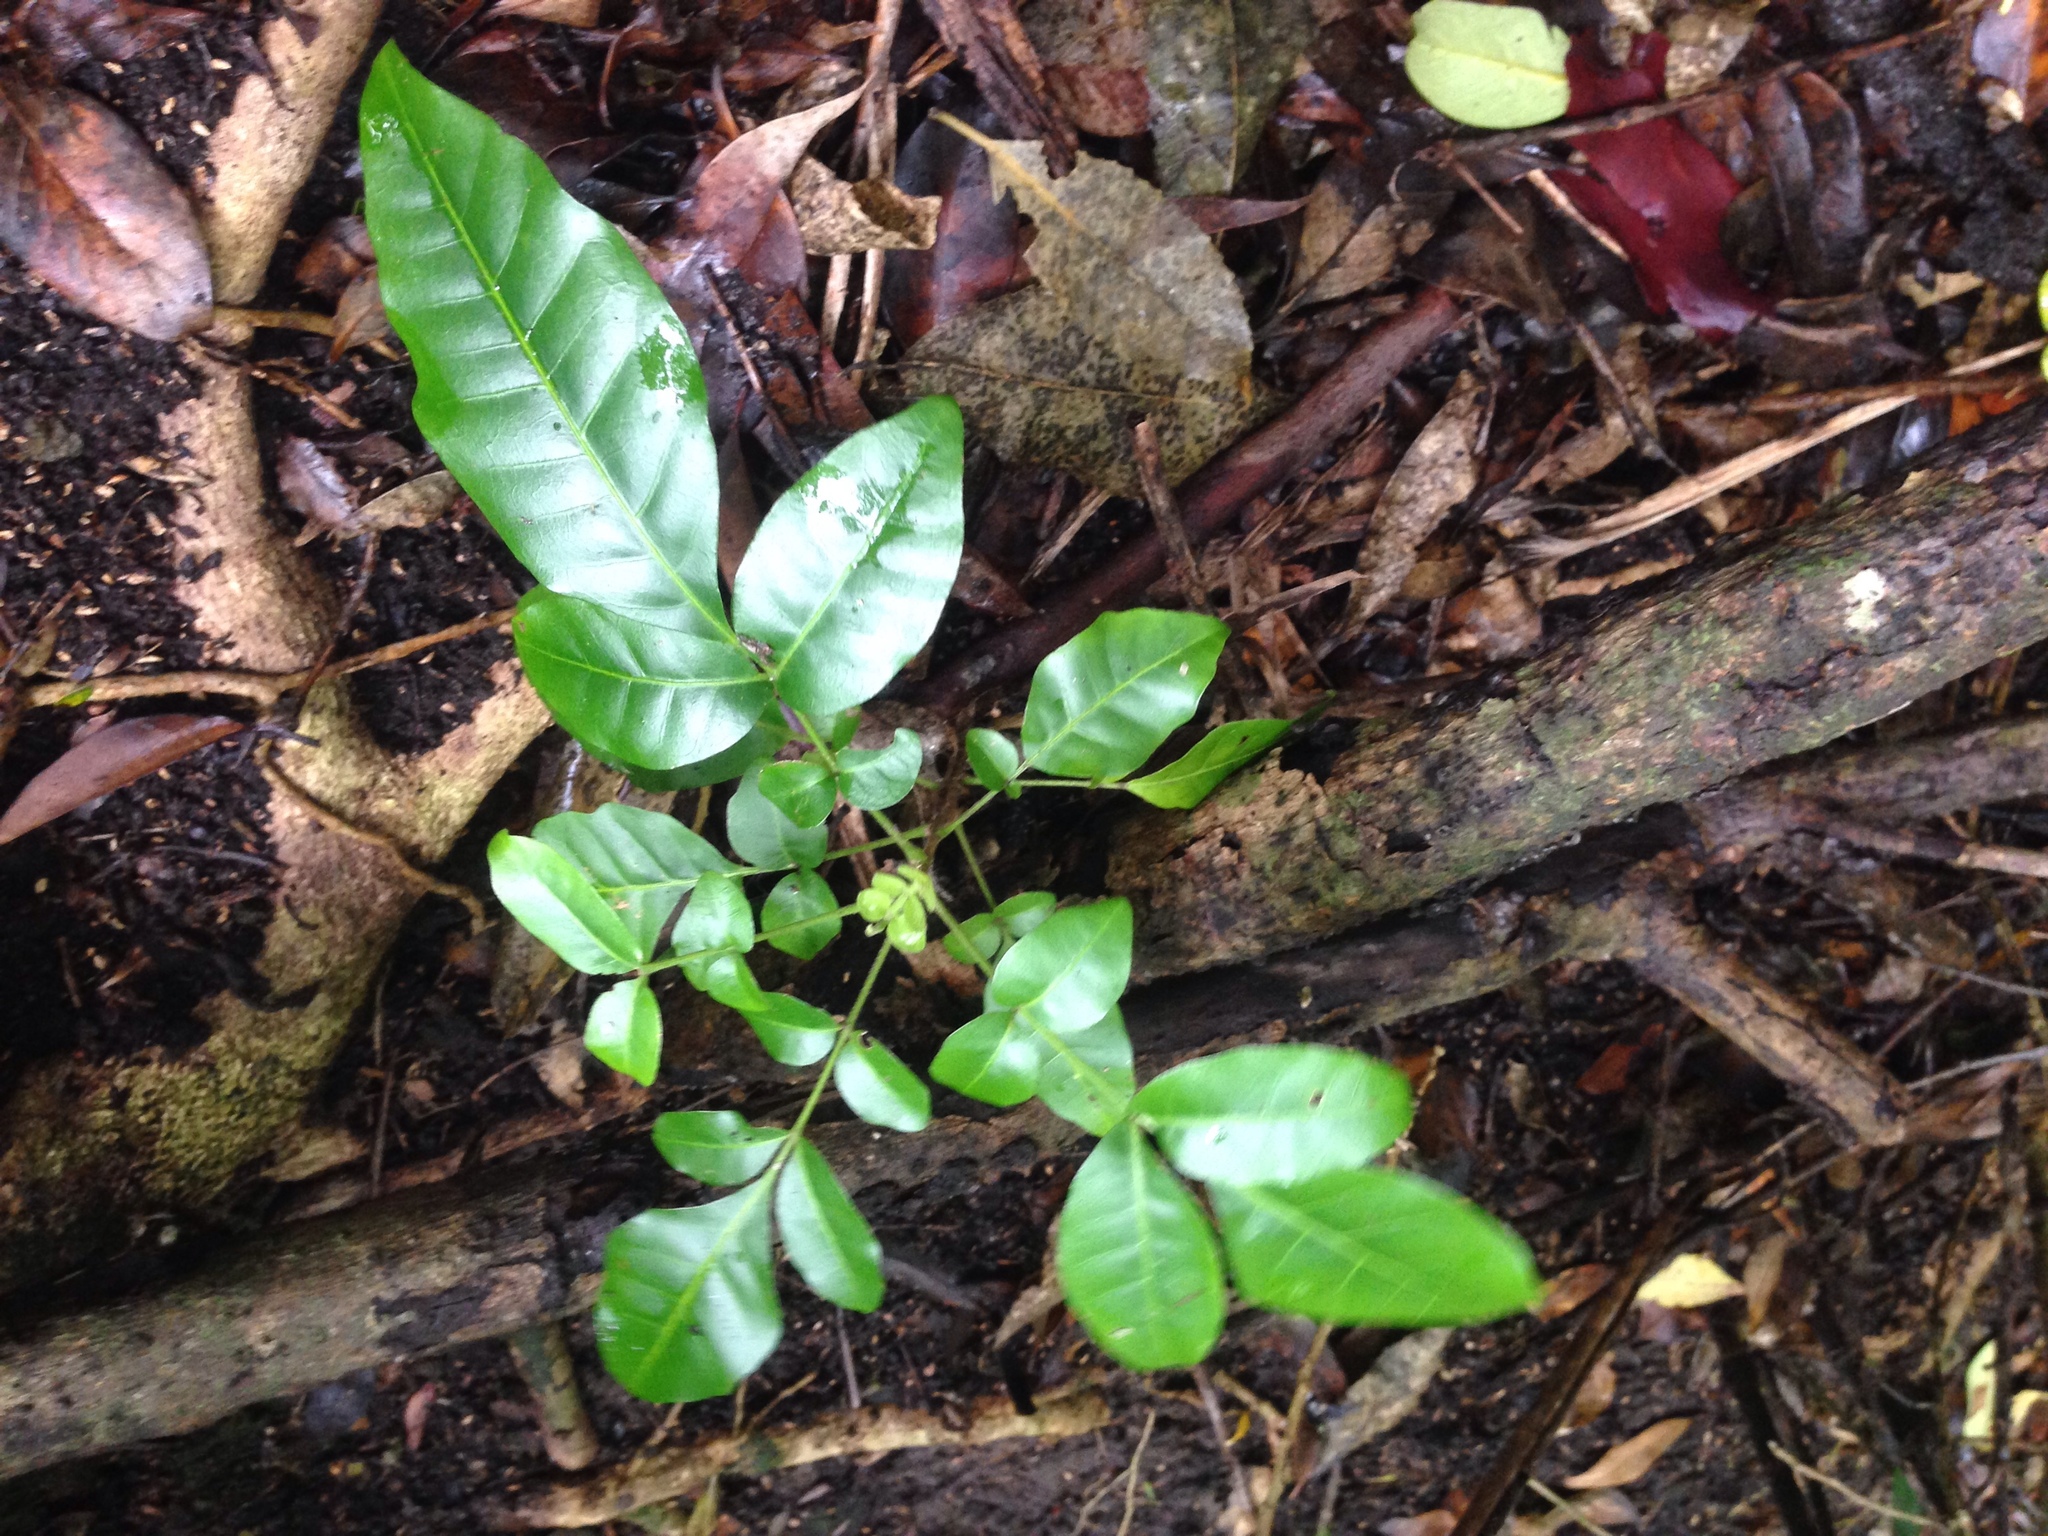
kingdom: Plantae
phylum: Tracheophyta
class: Magnoliopsida
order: Sapindales
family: Meliaceae
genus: Didymocheton
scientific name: Didymocheton spectabilis
